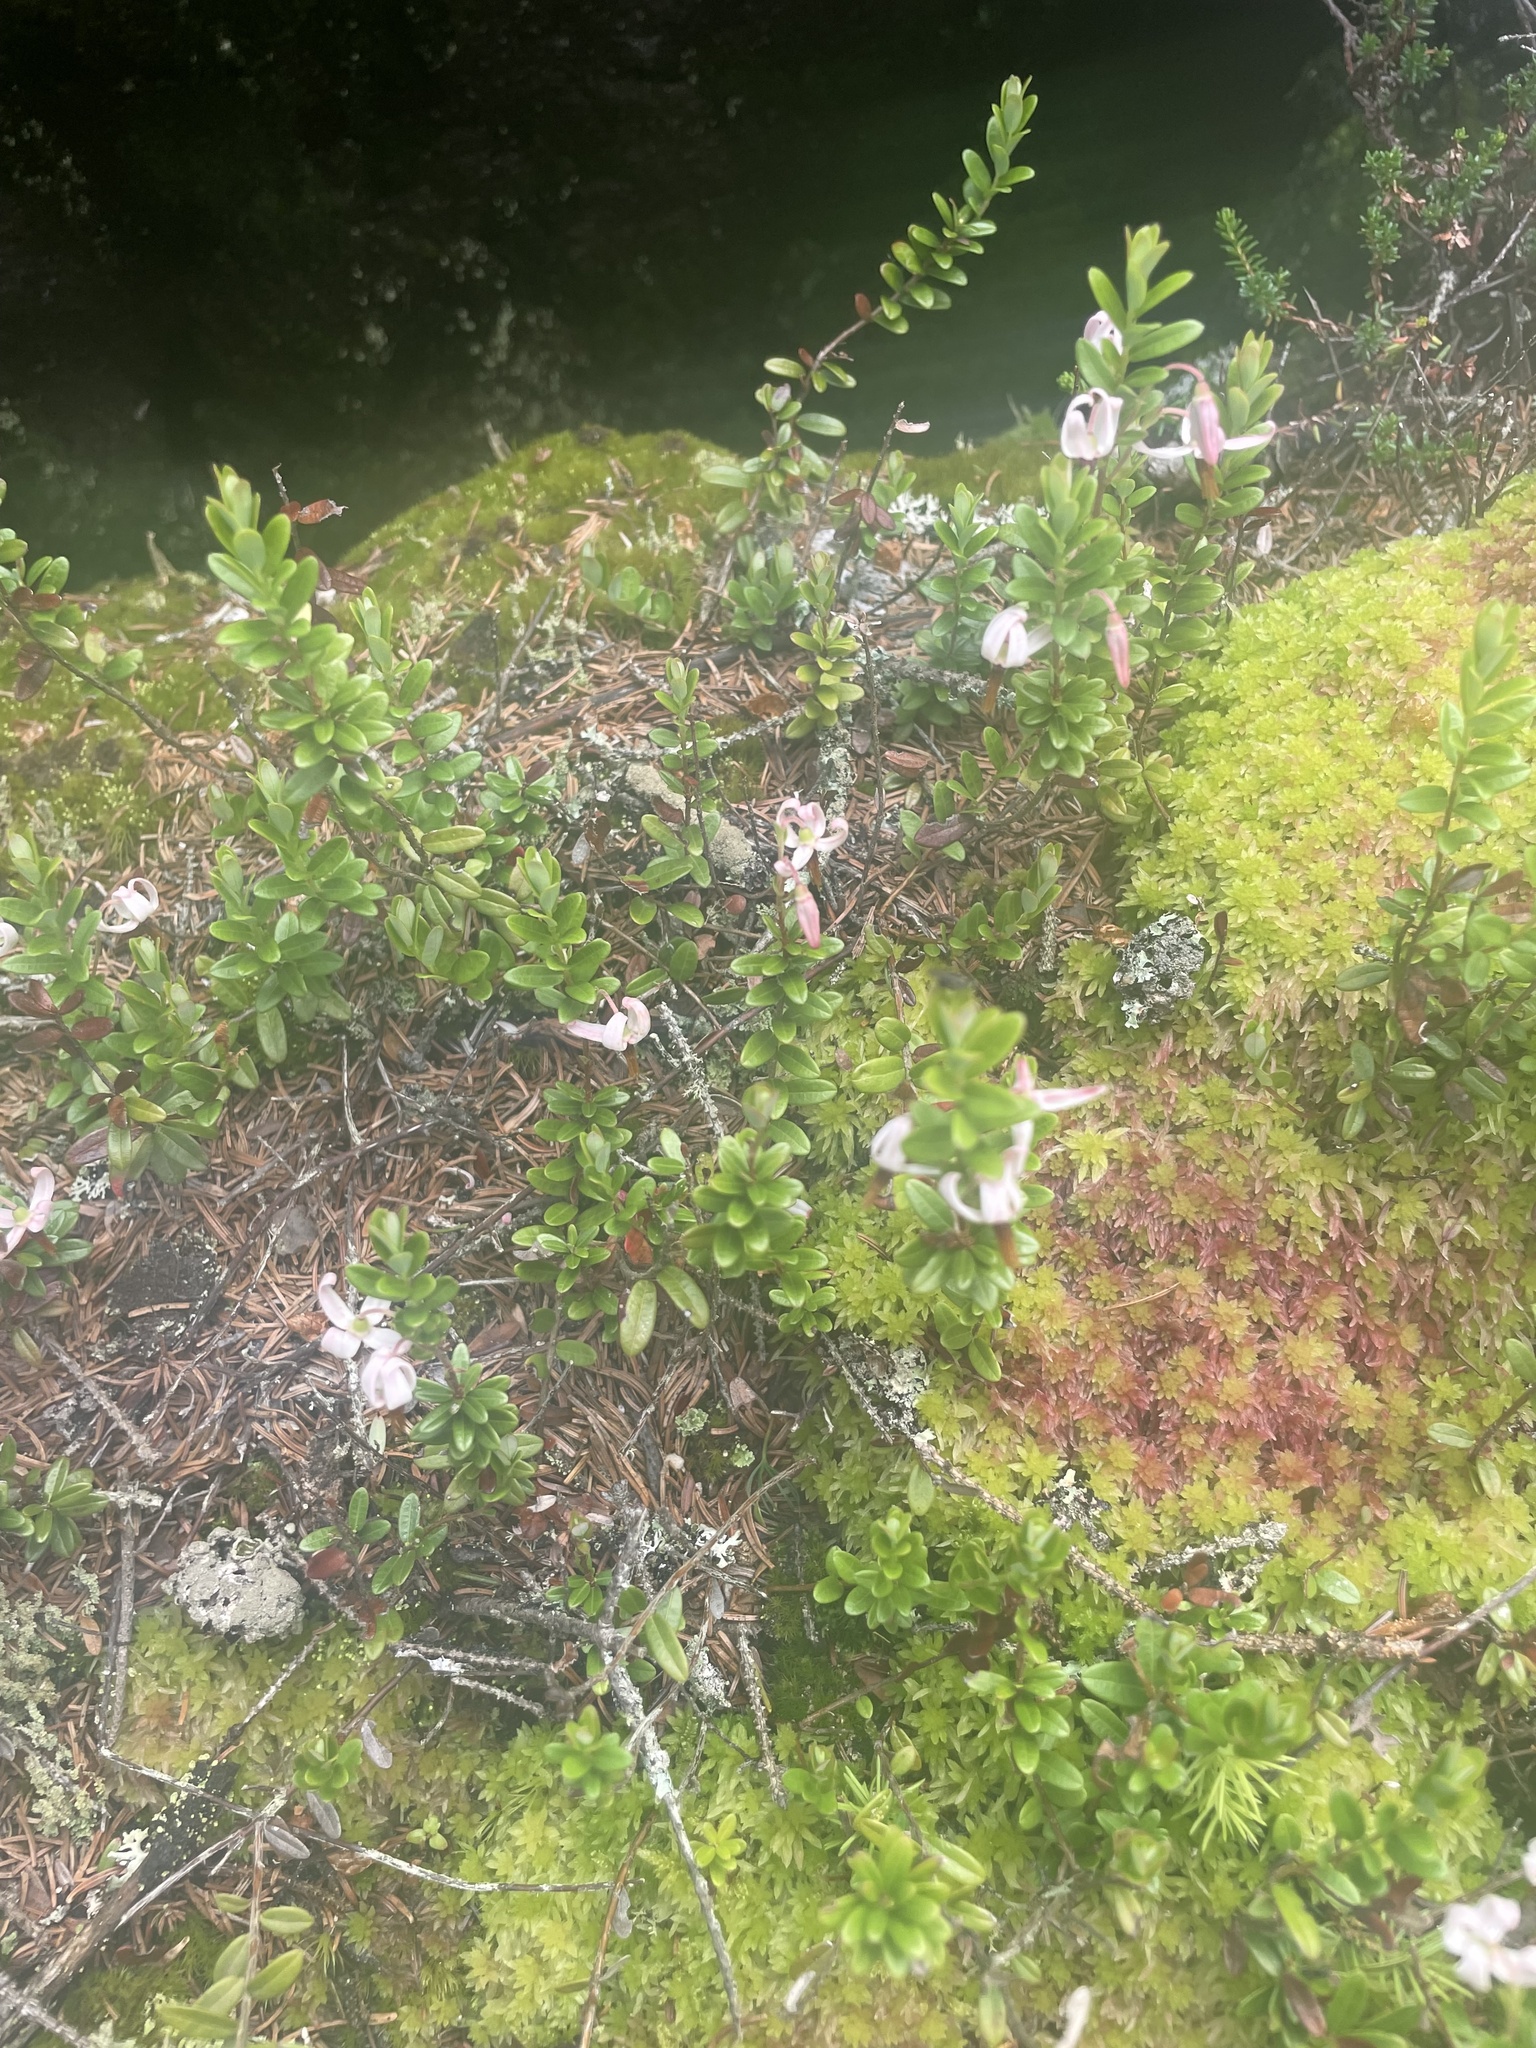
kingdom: Plantae
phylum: Tracheophyta
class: Magnoliopsida
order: Ericales
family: Ericaceae
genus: Vaccinium
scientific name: Vaccinium macrocarpon
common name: American cranberry
